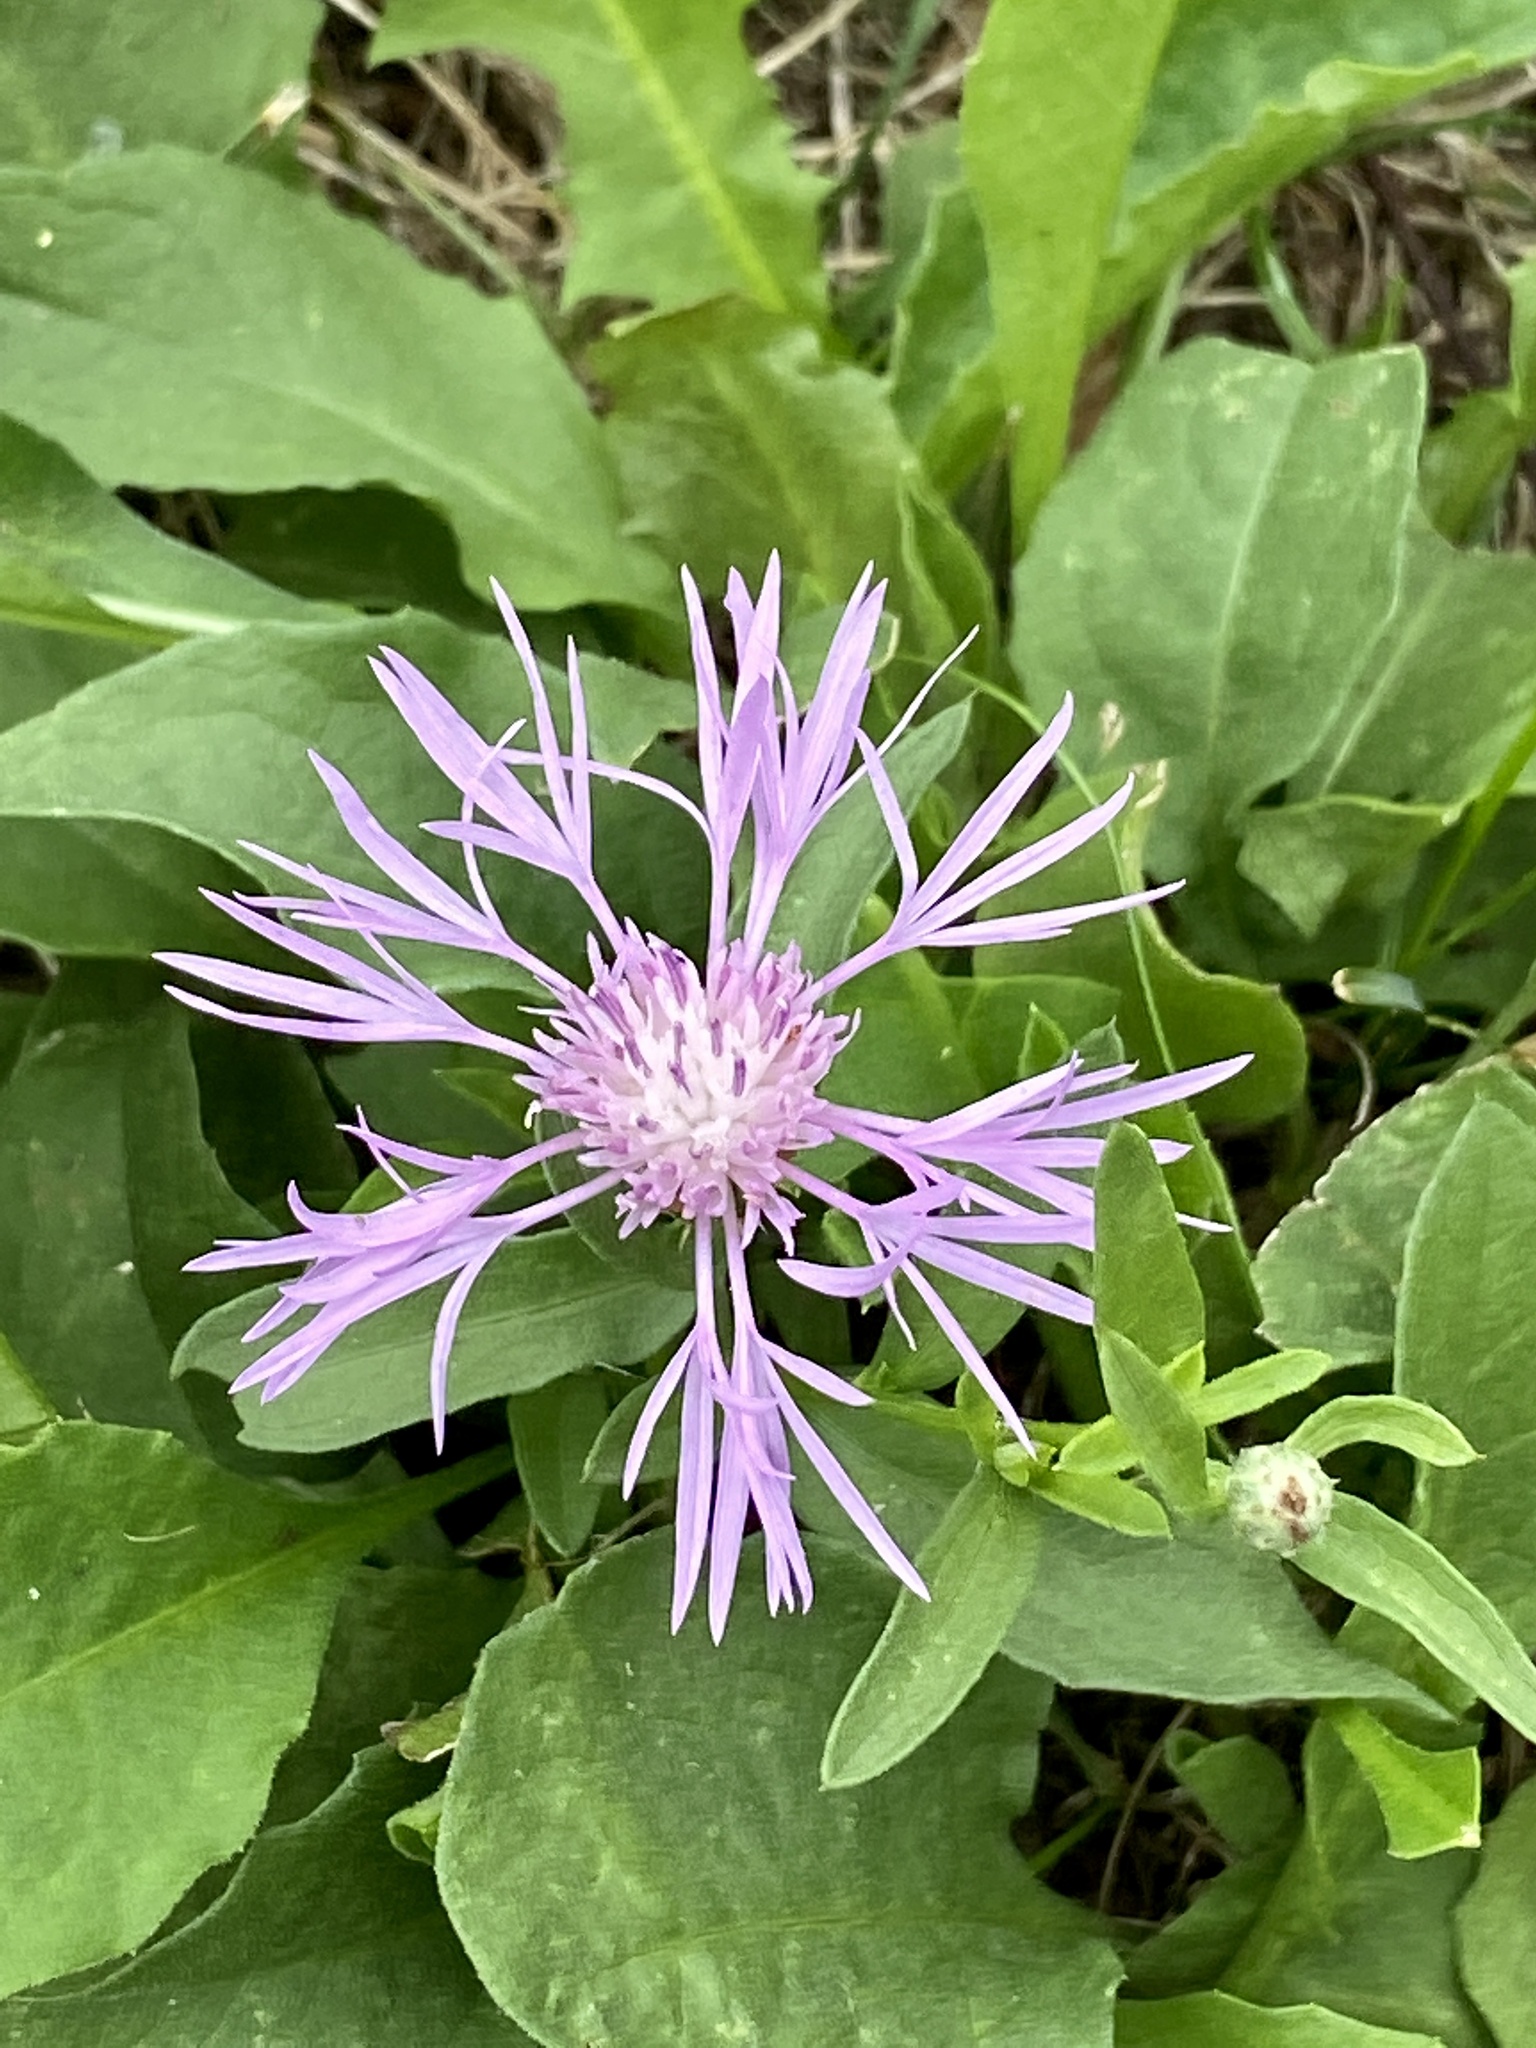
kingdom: Plantae
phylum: Tracheophyta
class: Magnoliopsida
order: Asterales
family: Asteraceae
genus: Centaurea
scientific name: Centaurea nigrescens
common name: Tyrol knapweed
